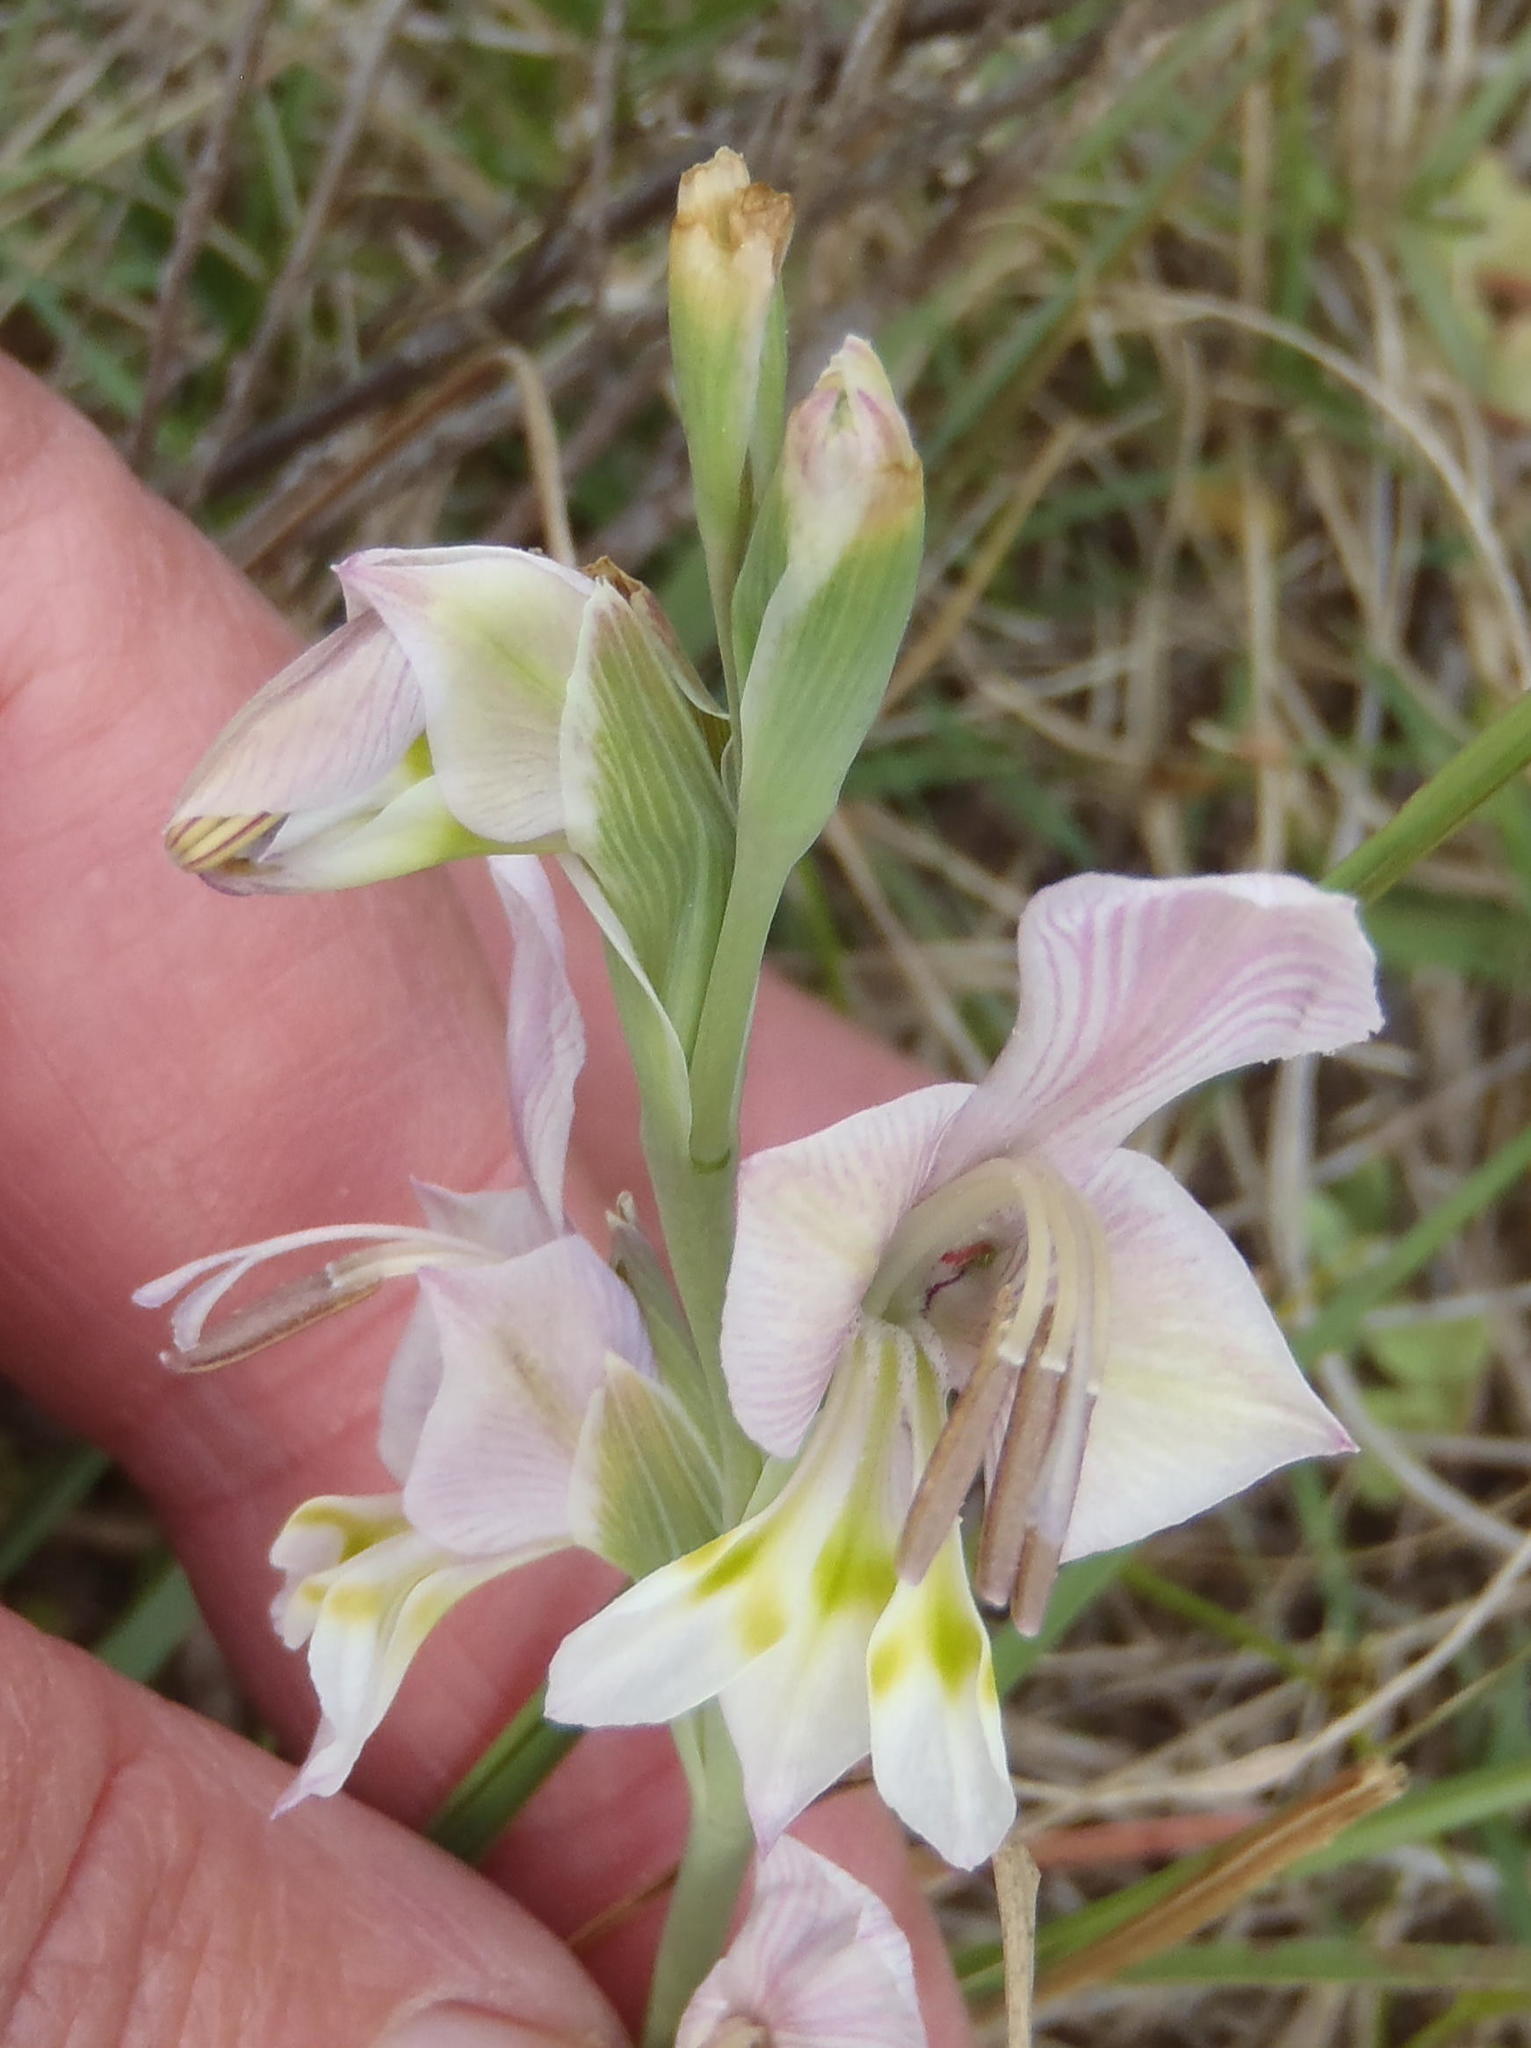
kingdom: Plantae
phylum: Tracheophyta
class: Liliopsida
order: Asparagales
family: Iridaceae
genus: Gladiolus
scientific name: Gladiolus virescens
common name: Yellow kalkoentjie
